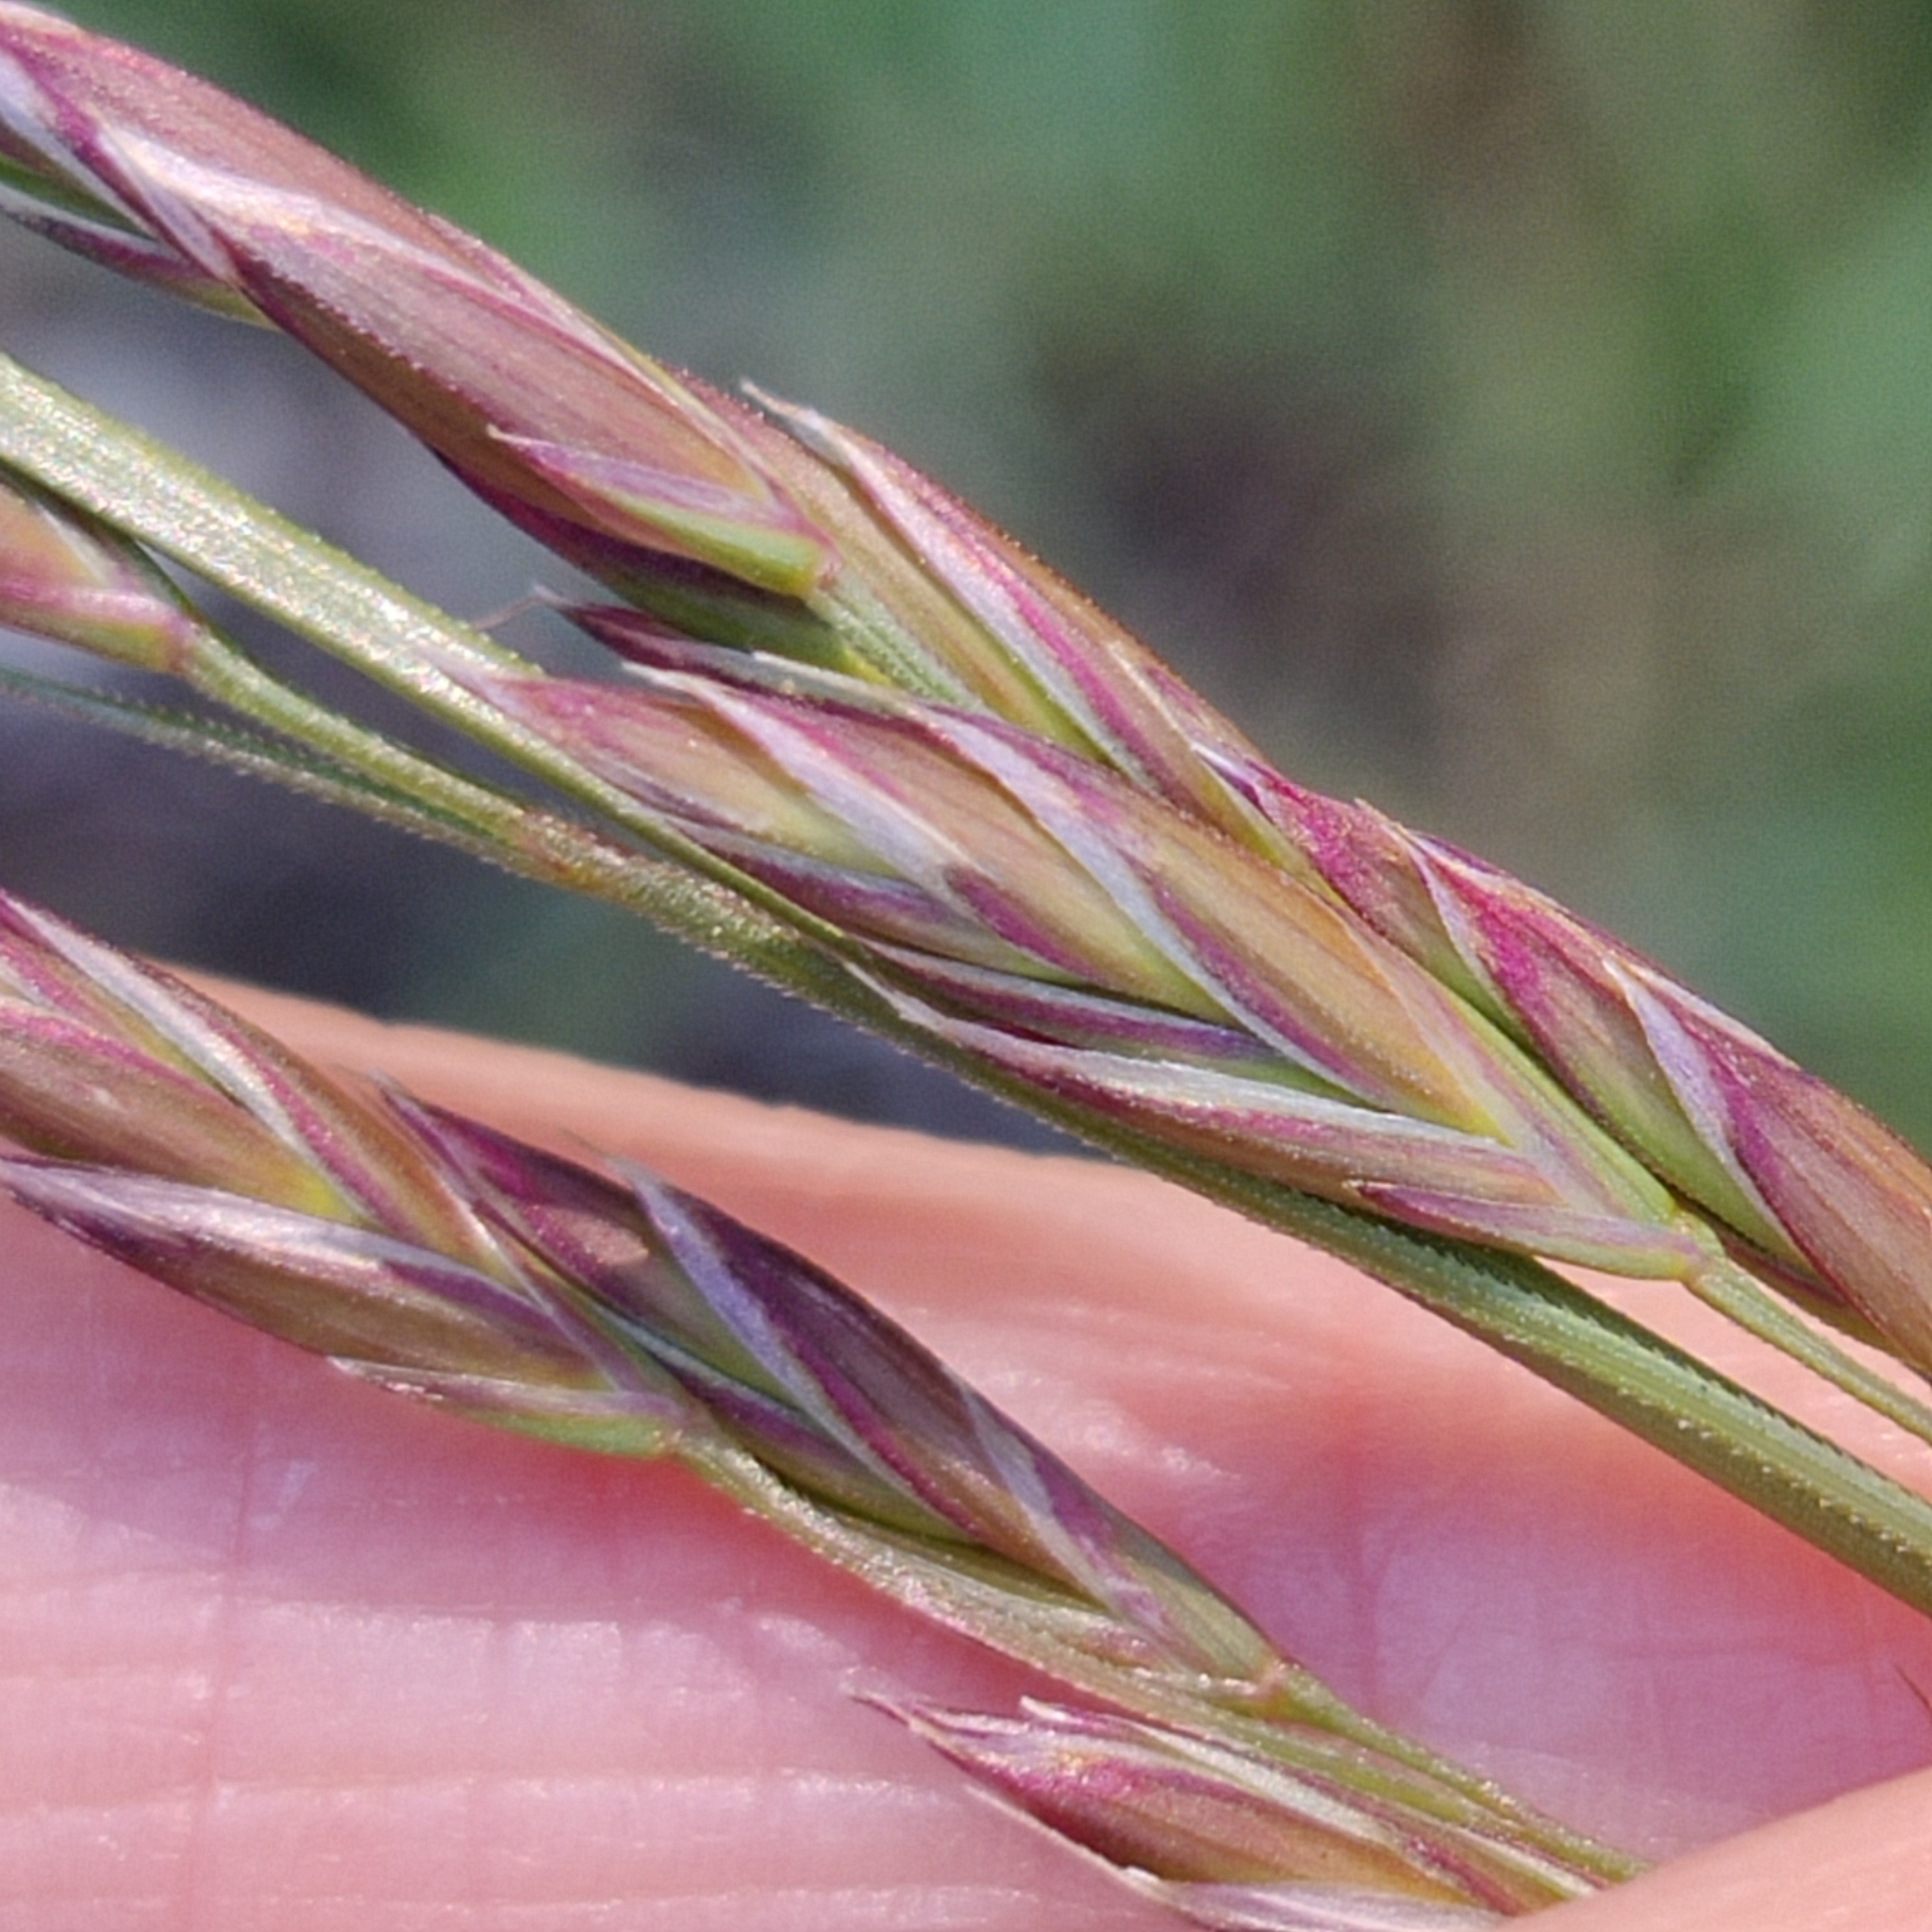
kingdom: Plantae
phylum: Tracheophyta
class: Liliopsida
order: Poales
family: Poaceae
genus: Lolium
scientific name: Lolium arundinaceum
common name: Reed fescue
